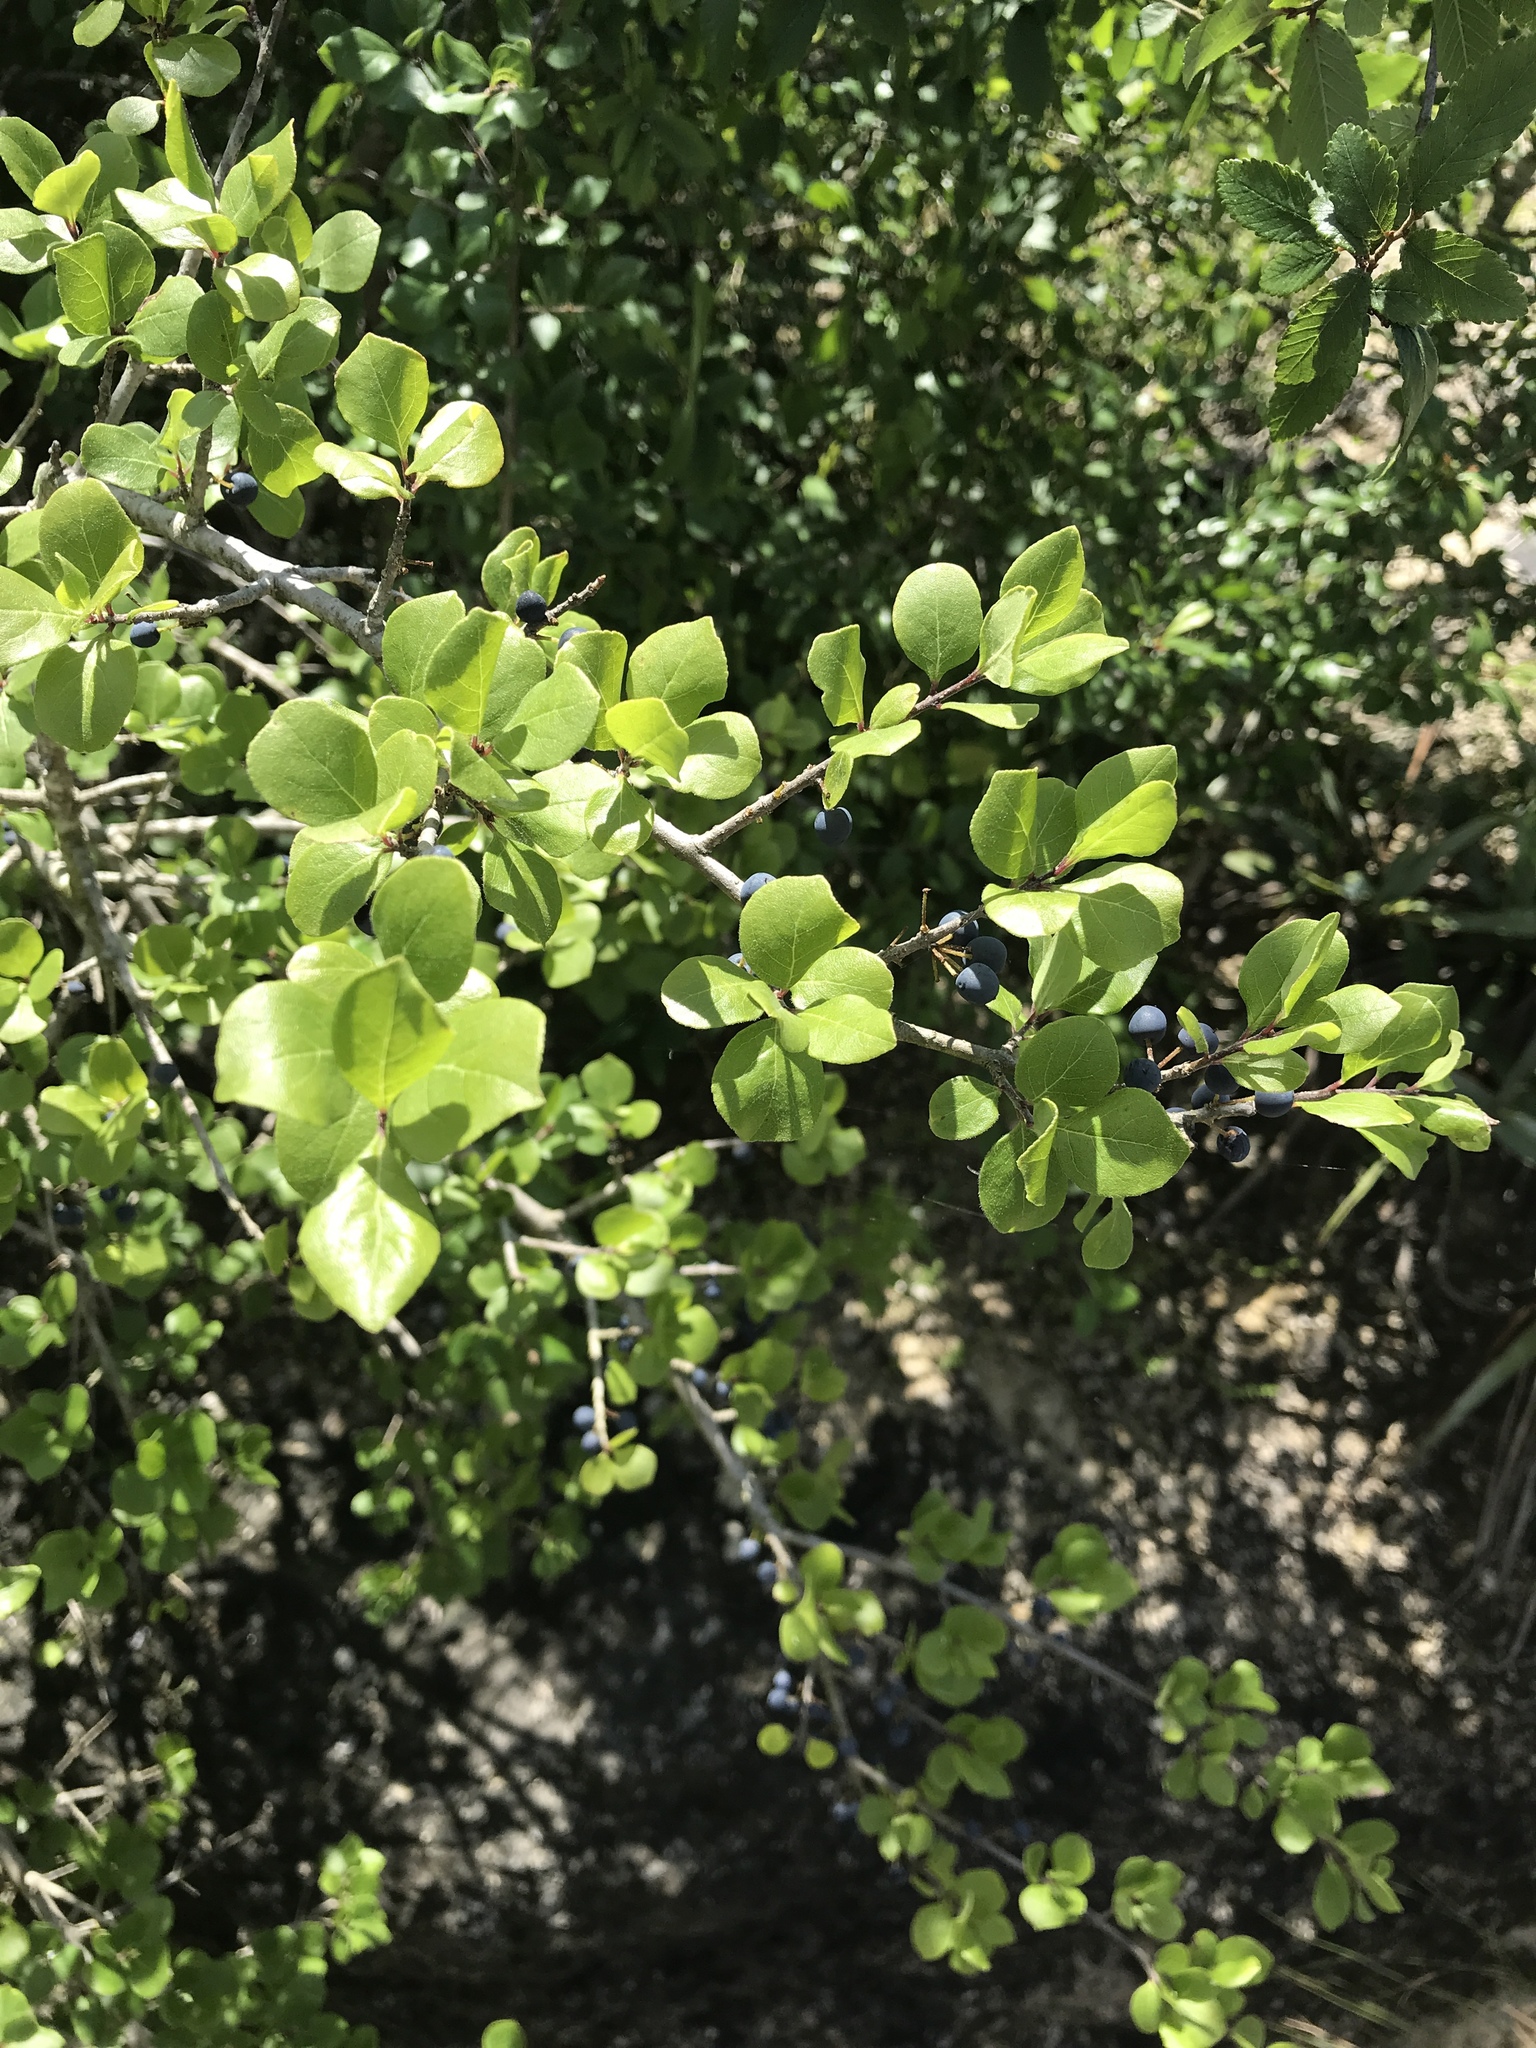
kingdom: Plantae
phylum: Tracheophyta
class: Magnoliopsida
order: Lamiales
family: Oleaceae
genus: Forestiera
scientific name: Forestiera pubescens
